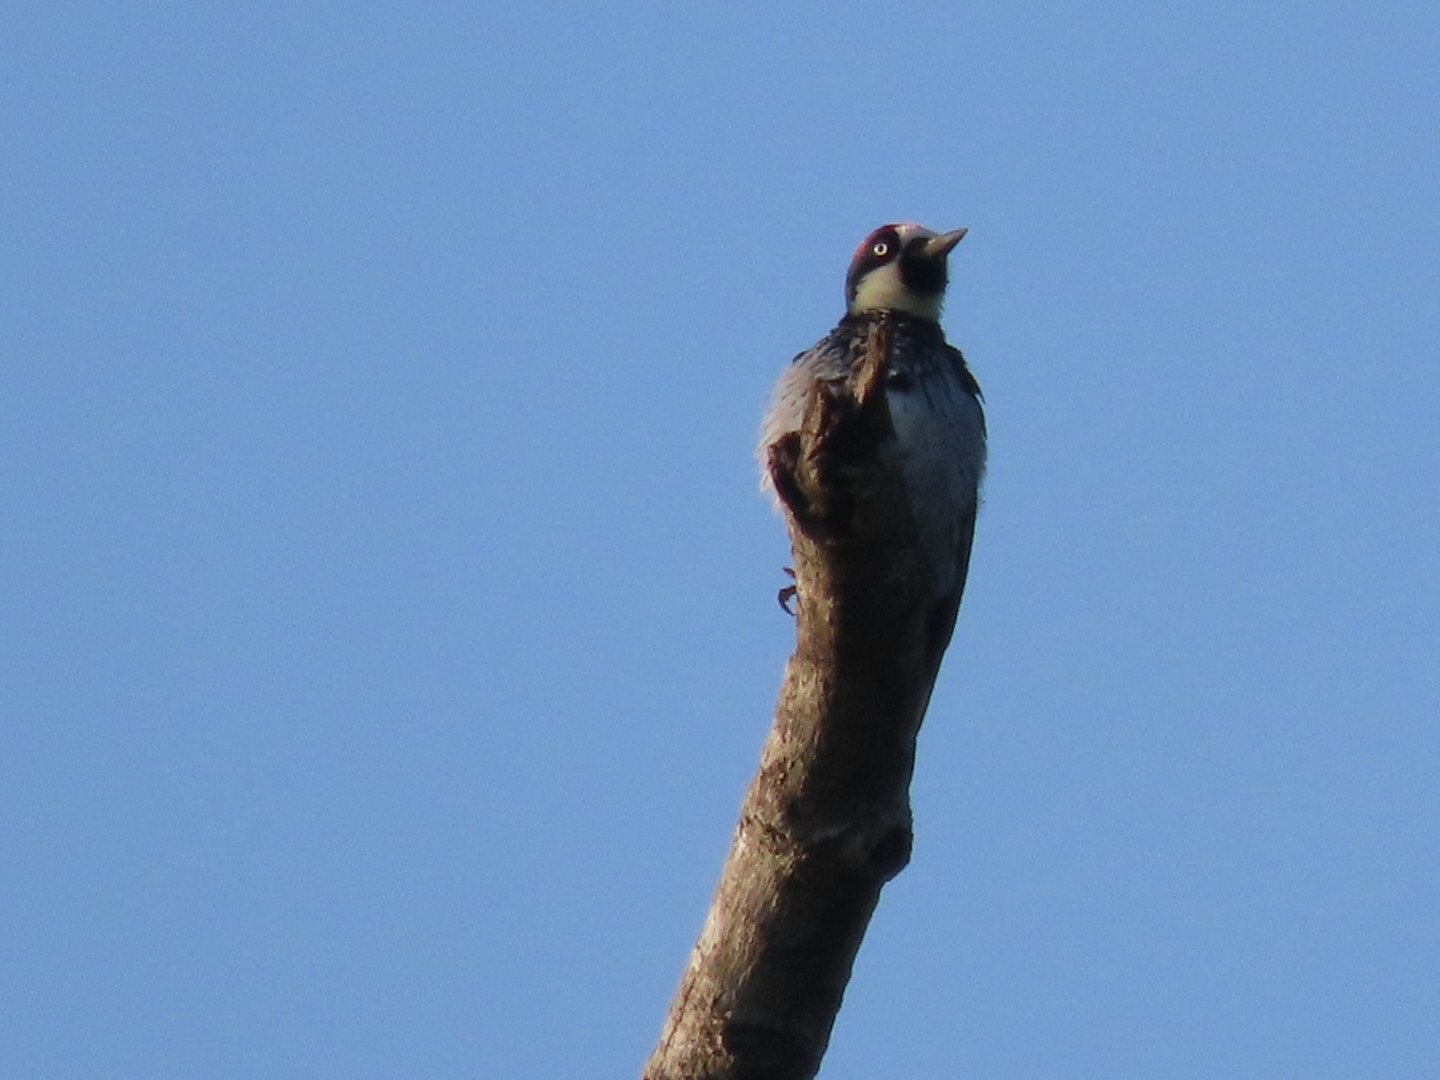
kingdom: Animalia
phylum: Chordata
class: Aves
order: Piciformes
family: Picidae
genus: Melanerpes
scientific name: Melanerpes formicivorus
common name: Acorn woodpecker
